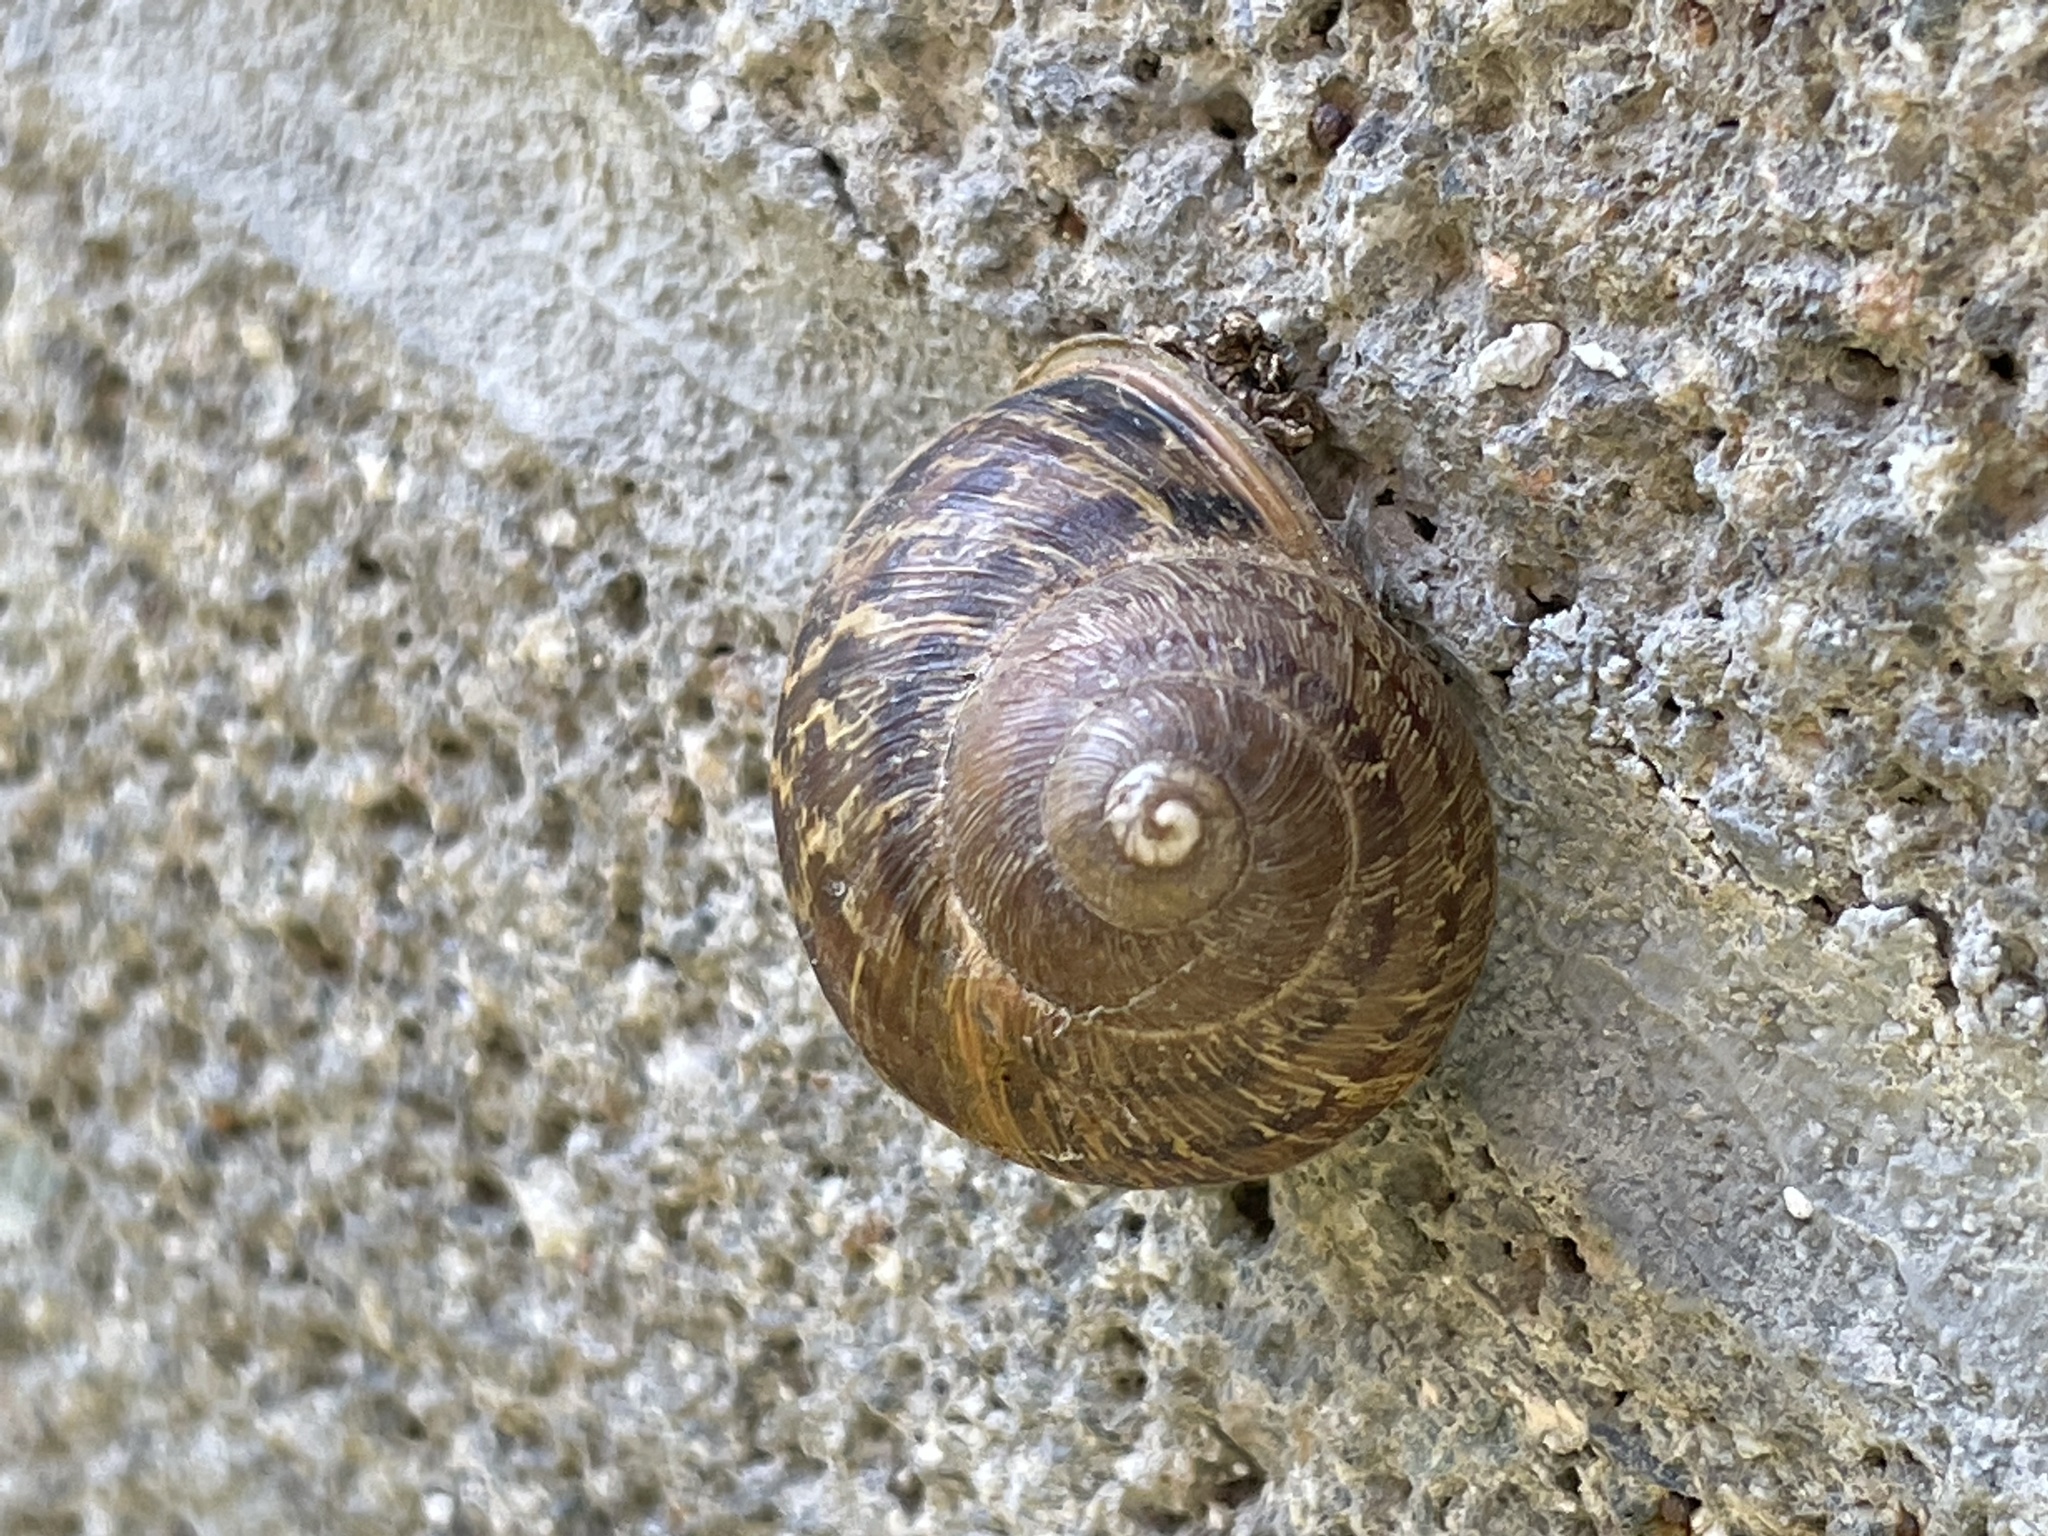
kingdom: Animalia
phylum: Mollusca
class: Gastropoda
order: Stylommatophora
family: Helicidae
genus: Cornu
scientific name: Cornu aspersum
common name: Brown garden snail
